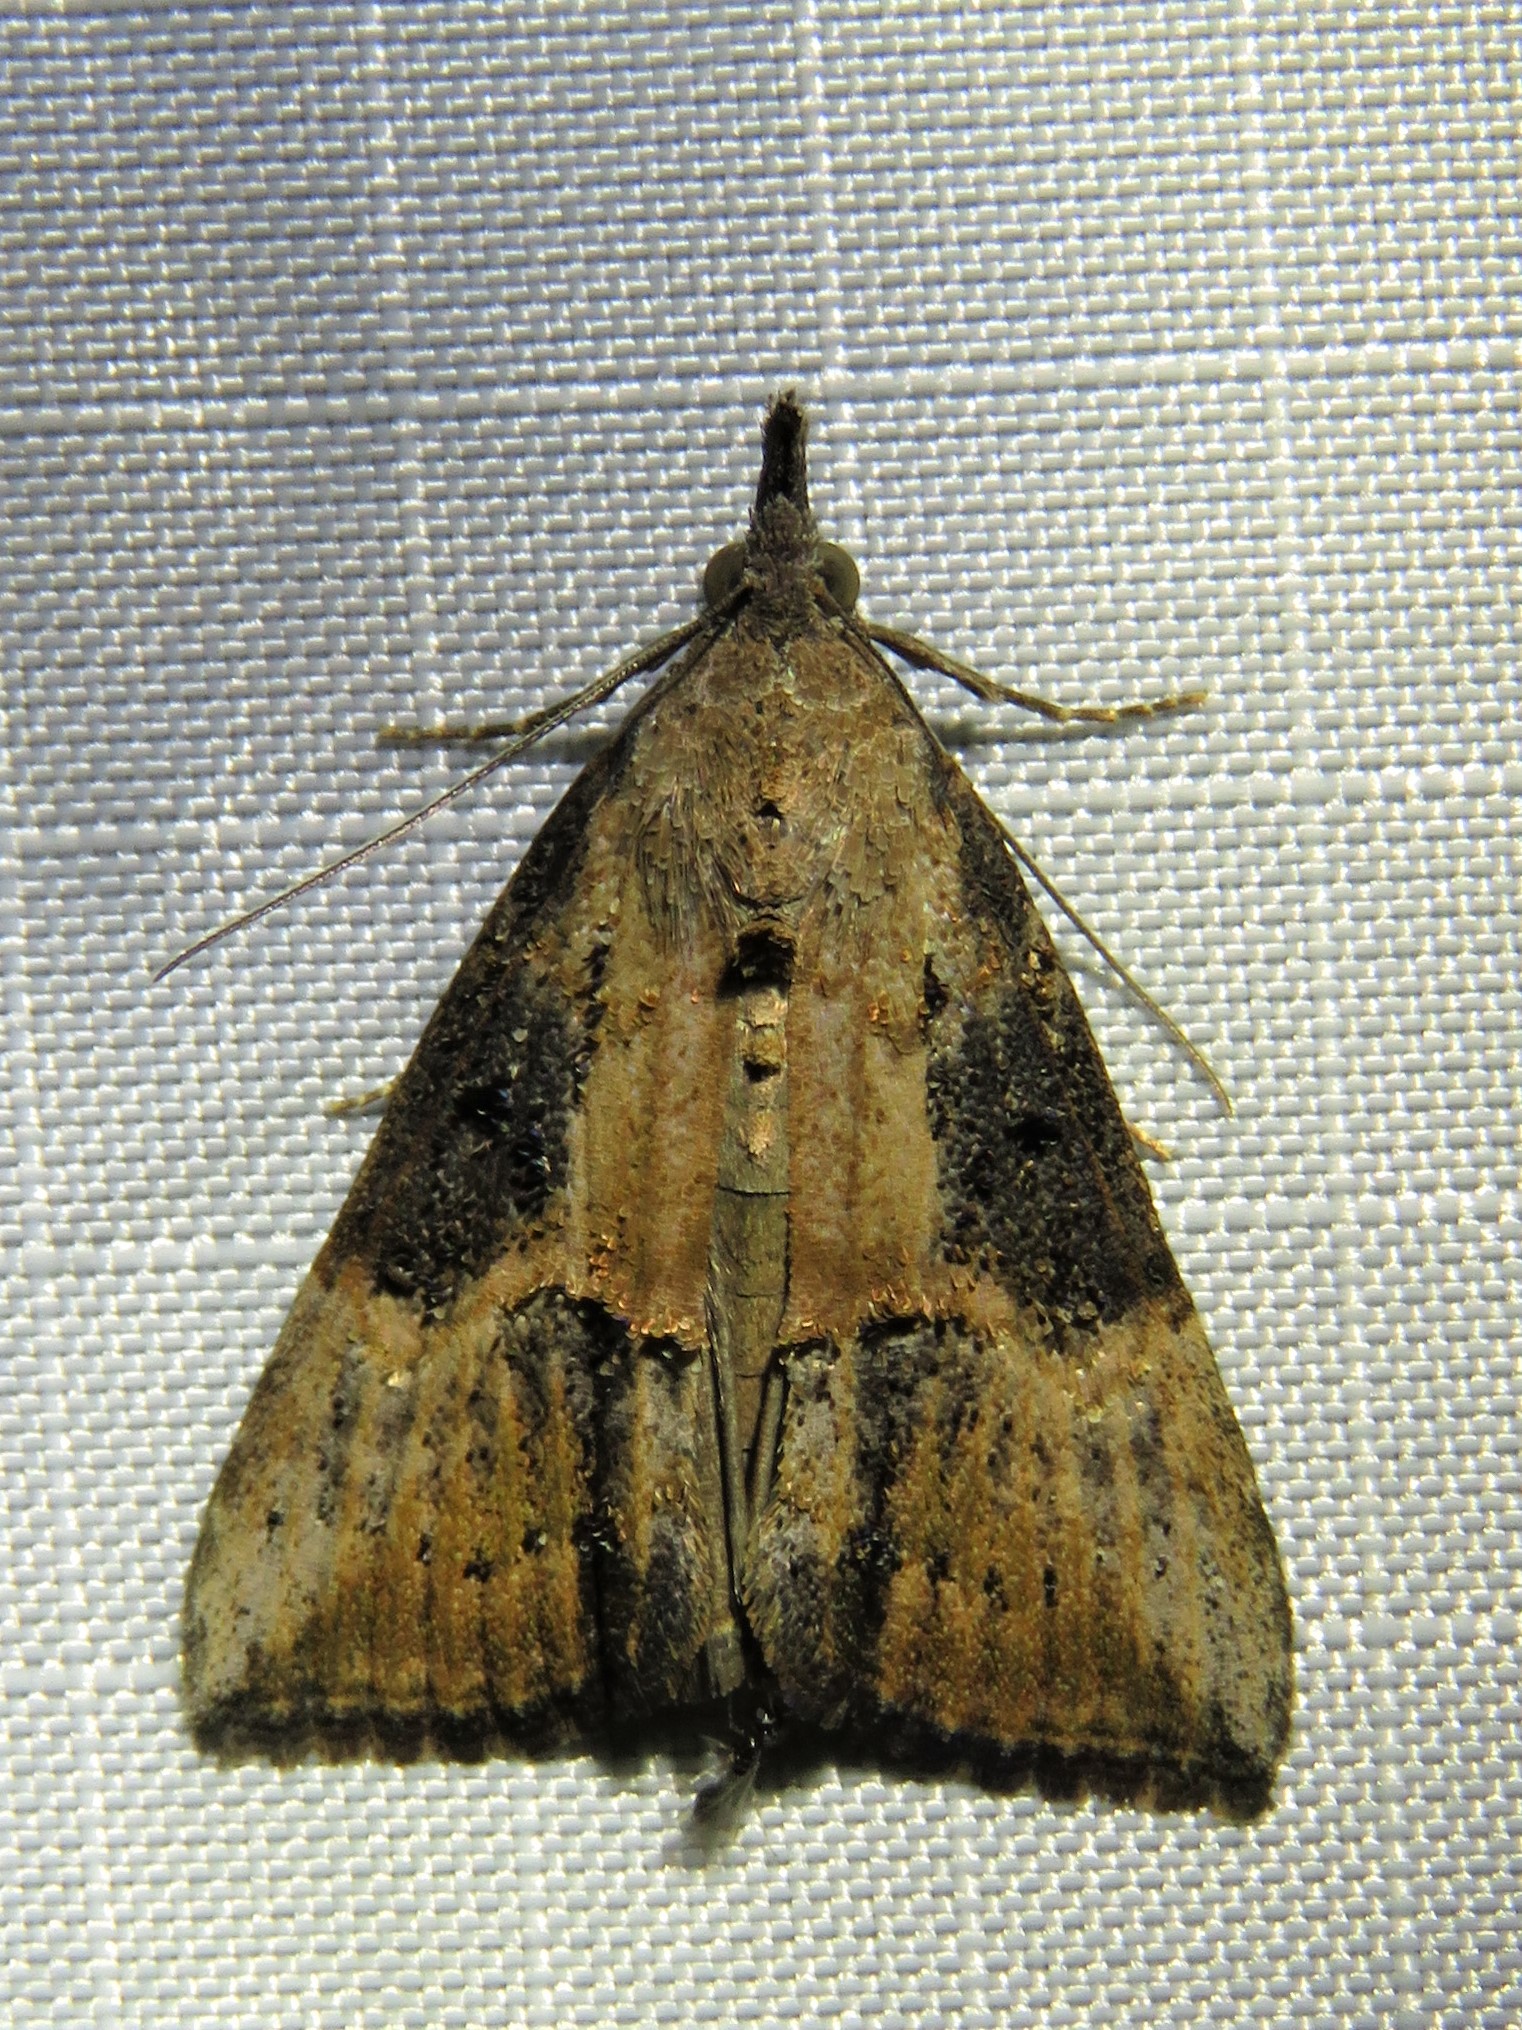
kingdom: Animalia
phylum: Arthropoda
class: Insecta
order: Lepidoptera
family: Erebidae
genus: Hypena
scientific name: Hypena scabra
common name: Green cloverworm
